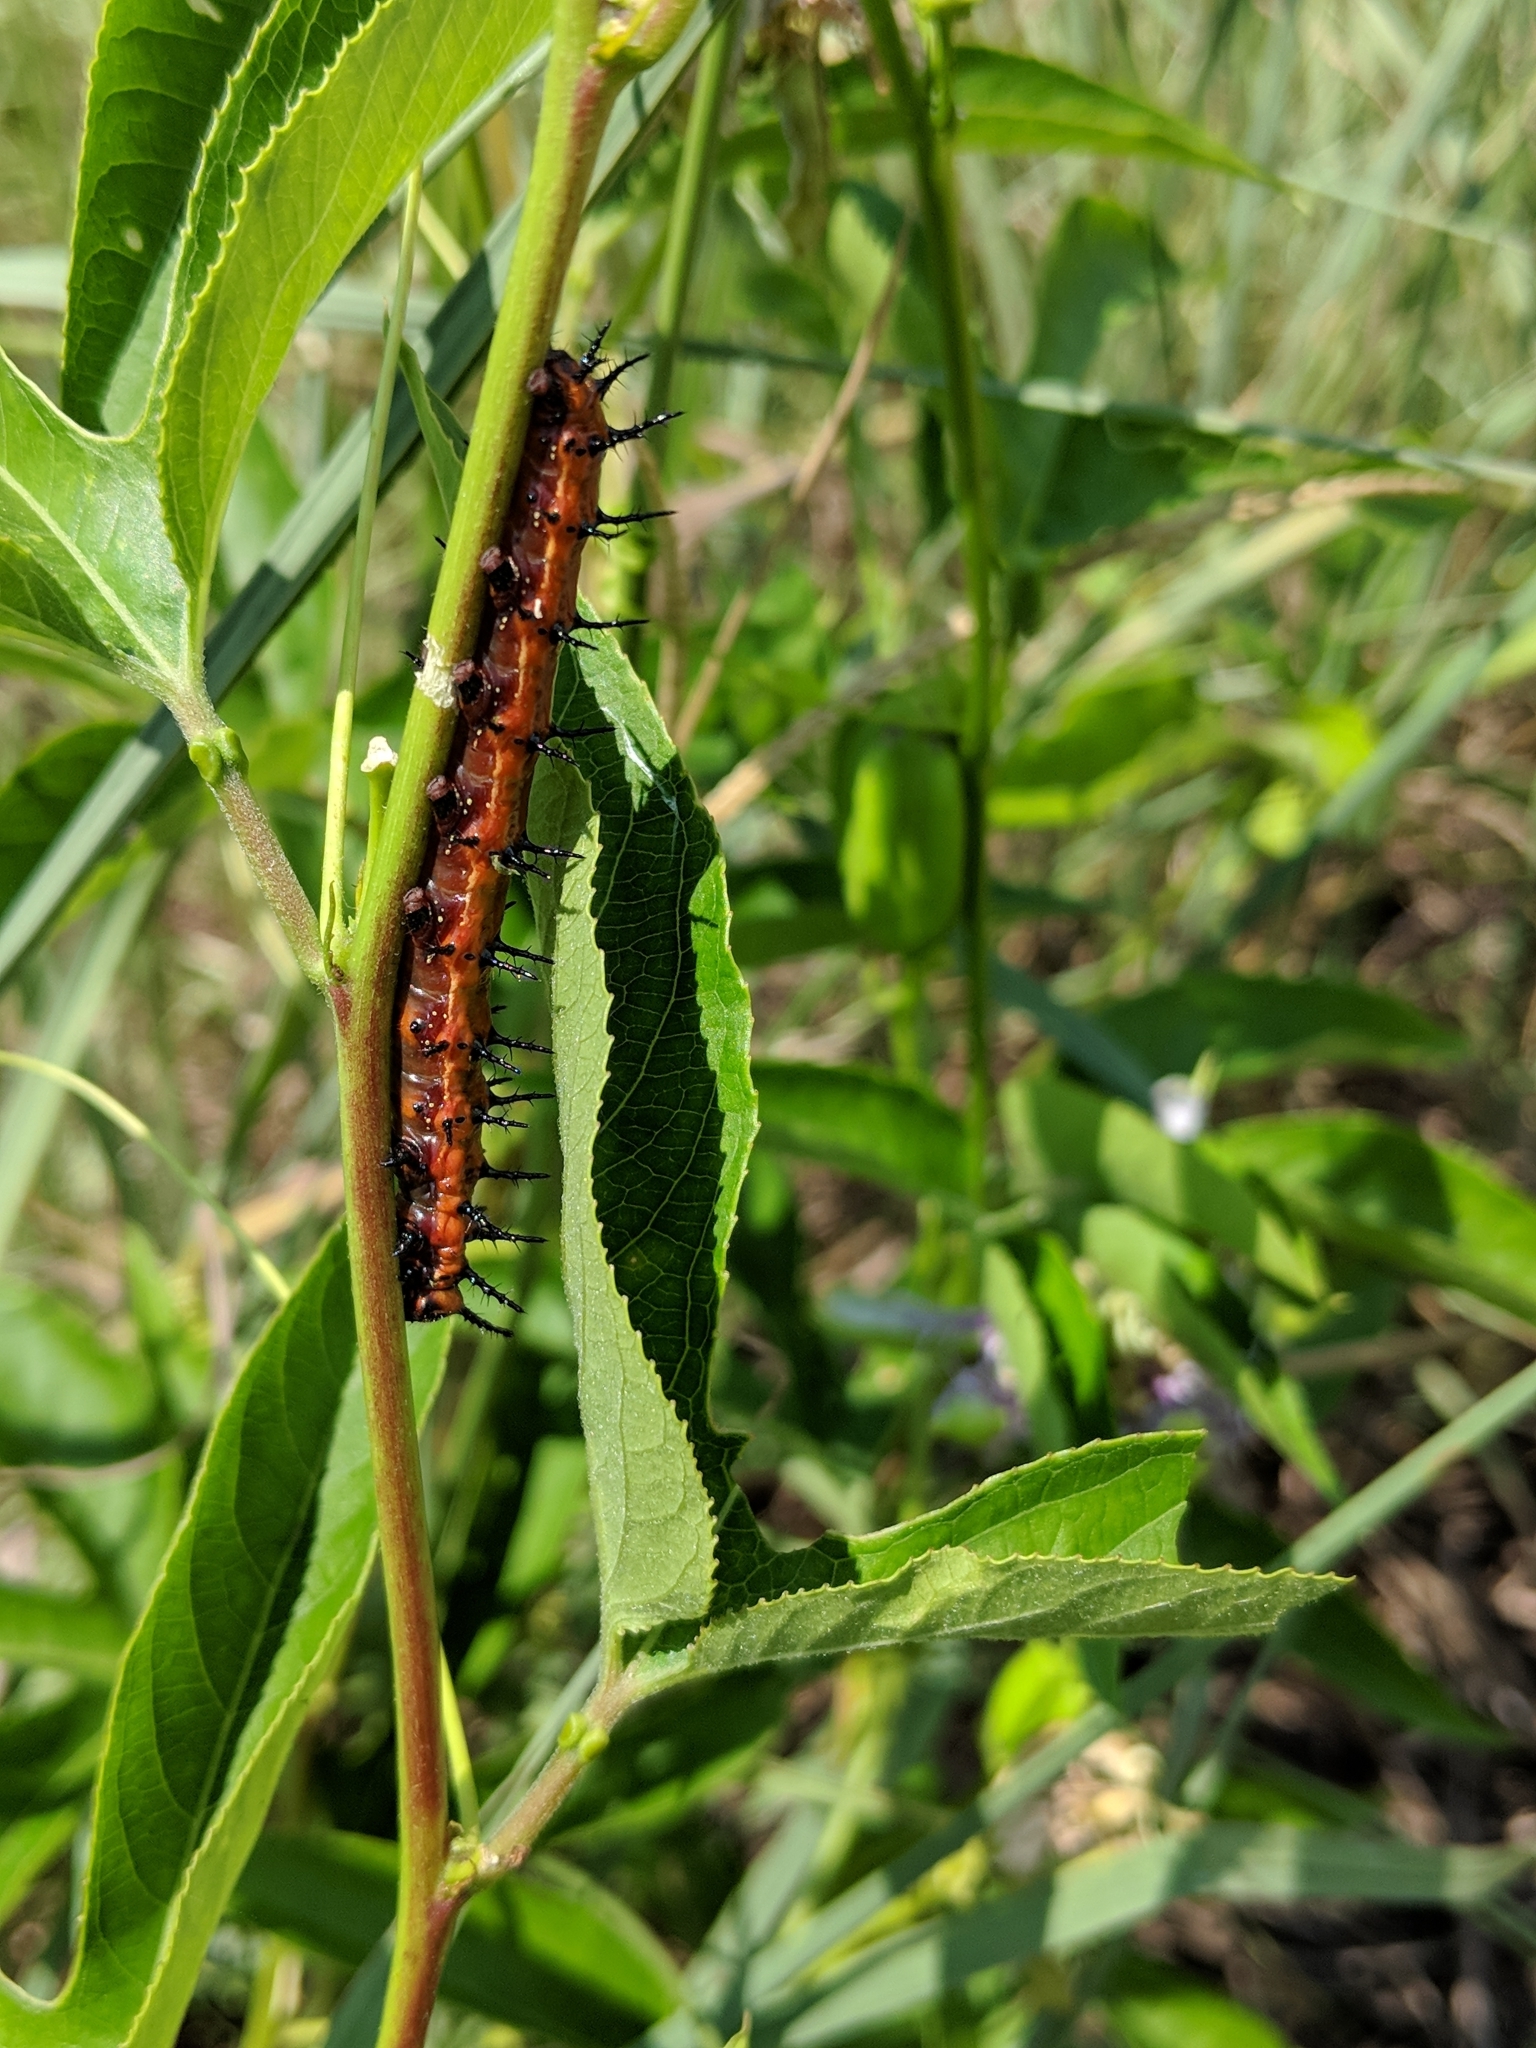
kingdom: Animalia
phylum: Arthropoda
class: Insecta
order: Lepidoptera
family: Nymphalidae
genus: Dione
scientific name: Dione vanillae
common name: Gulf fritillary
